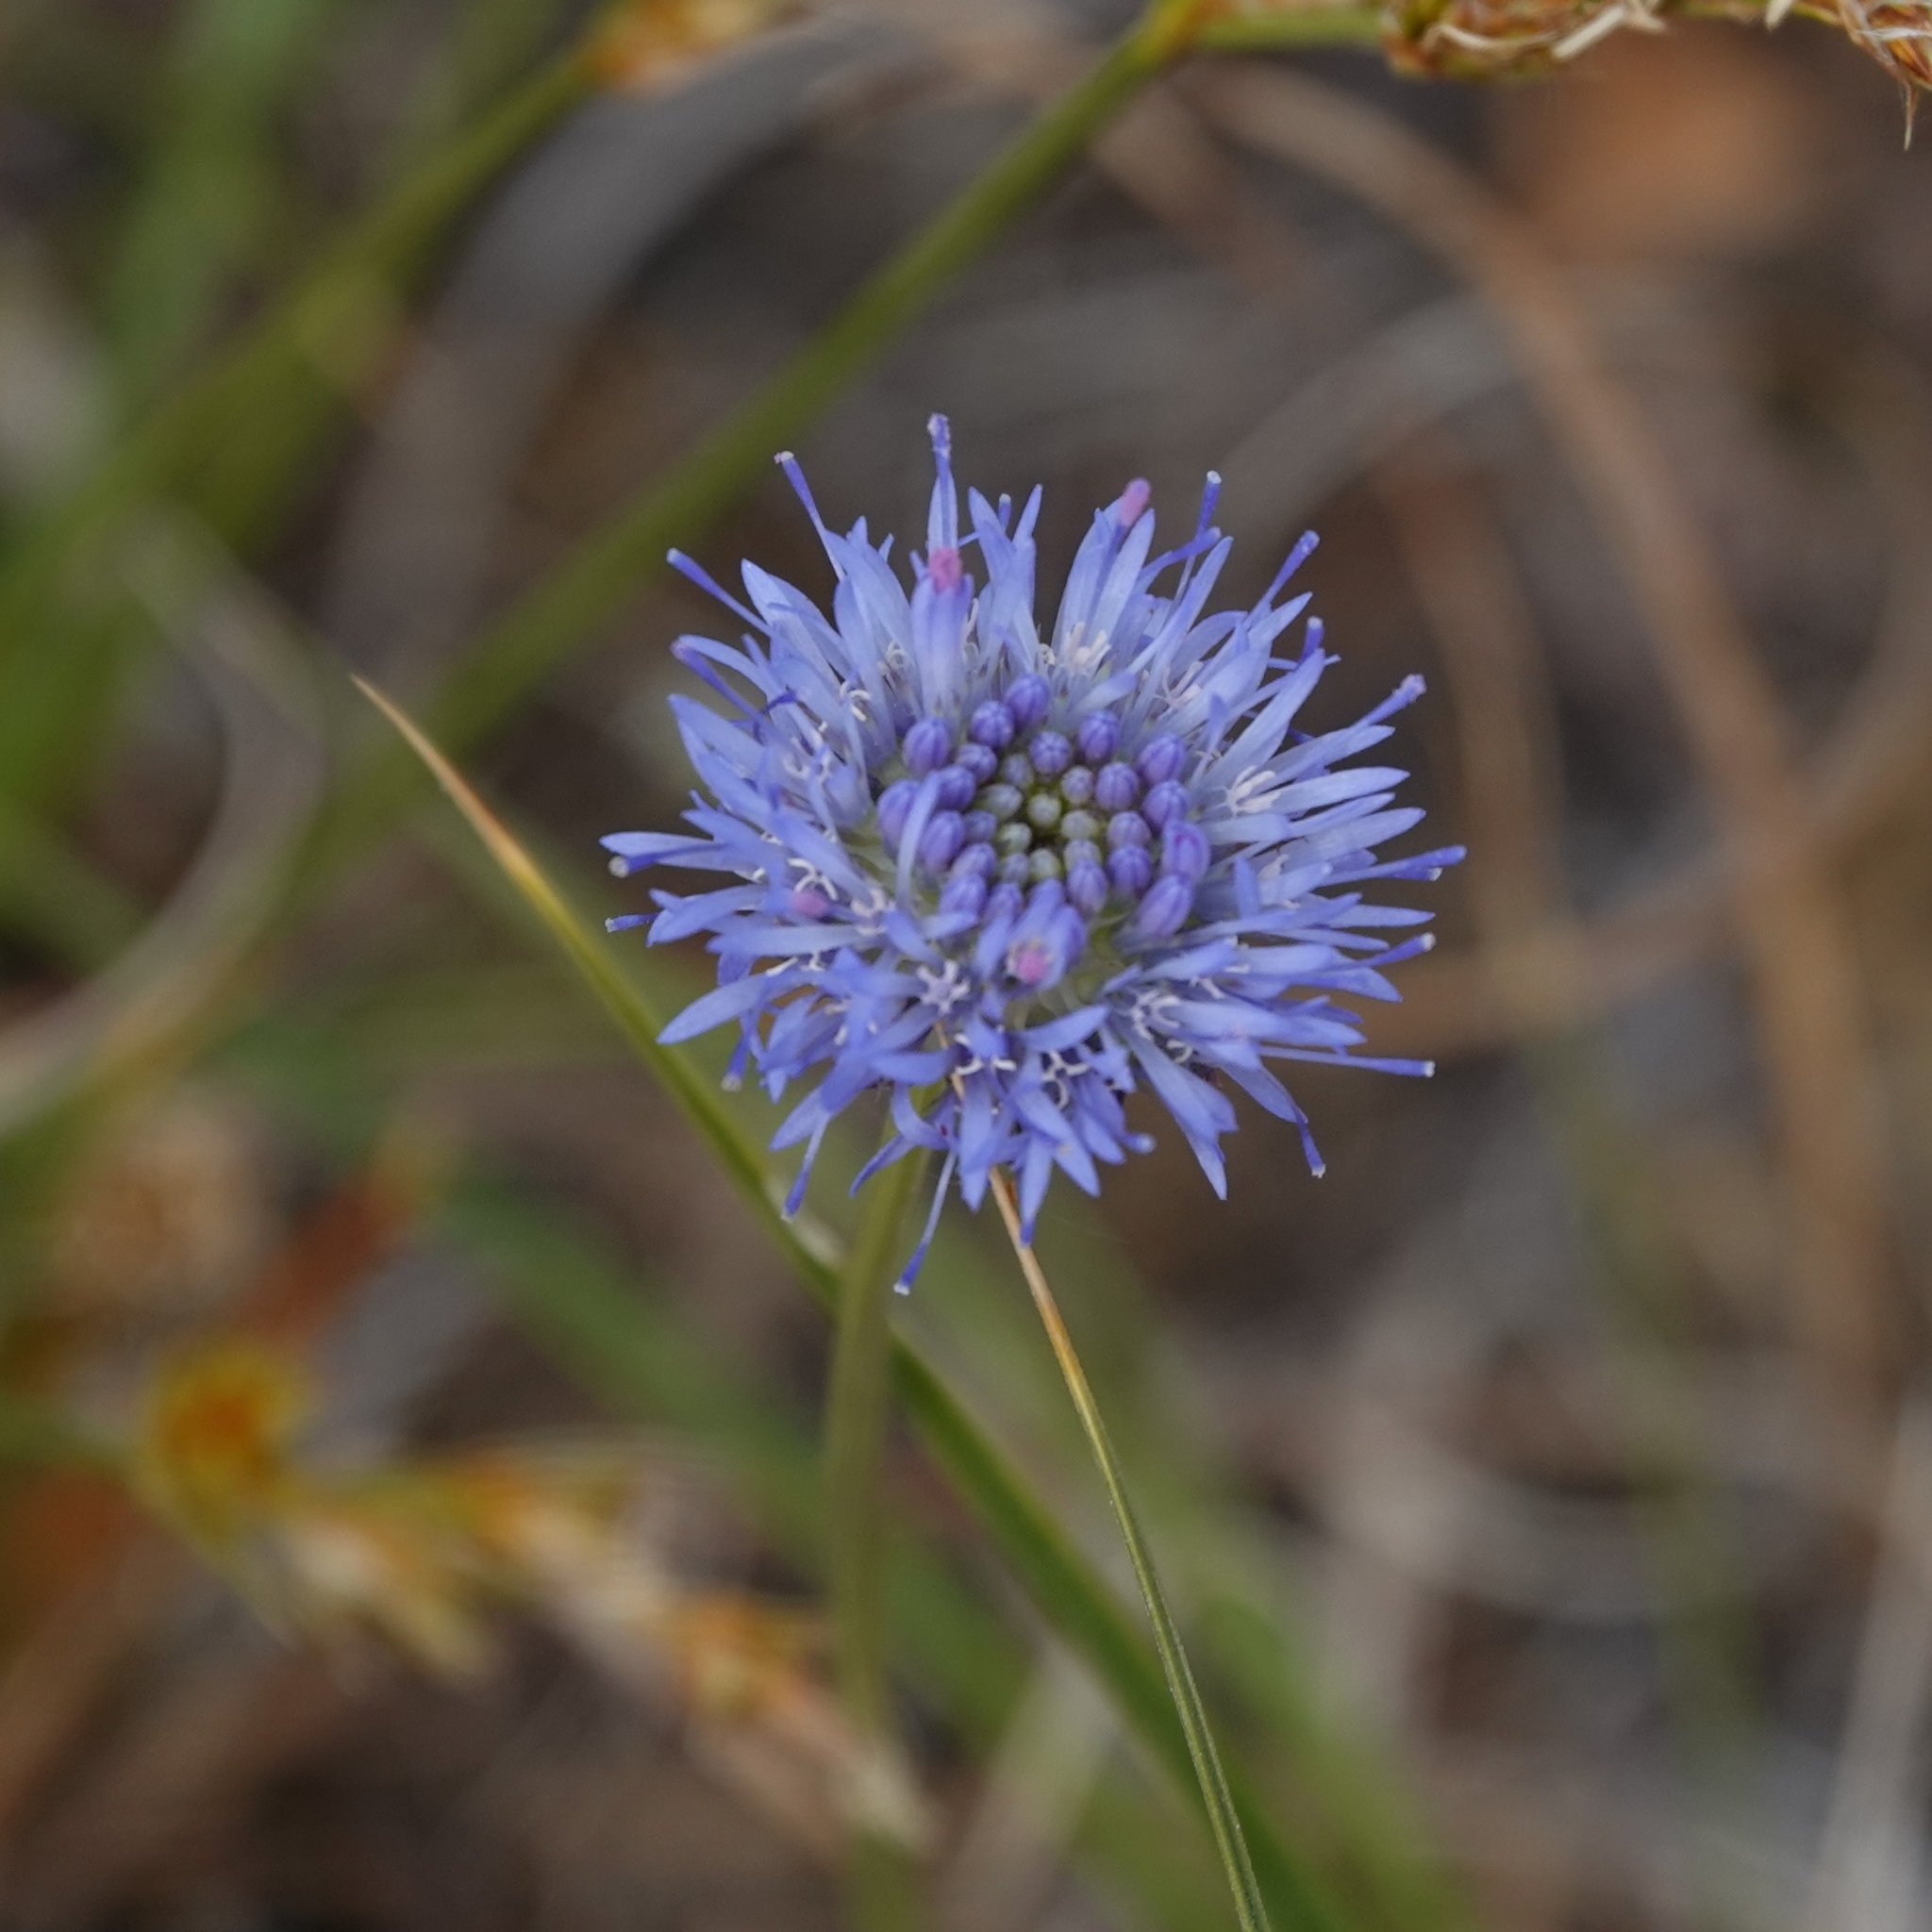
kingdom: Plantae
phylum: Tracheophyta
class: Magnoliopsida
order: Asterales
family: Campanulaceae
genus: Jasione
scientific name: Jasione montana
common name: Sheep's-bit
